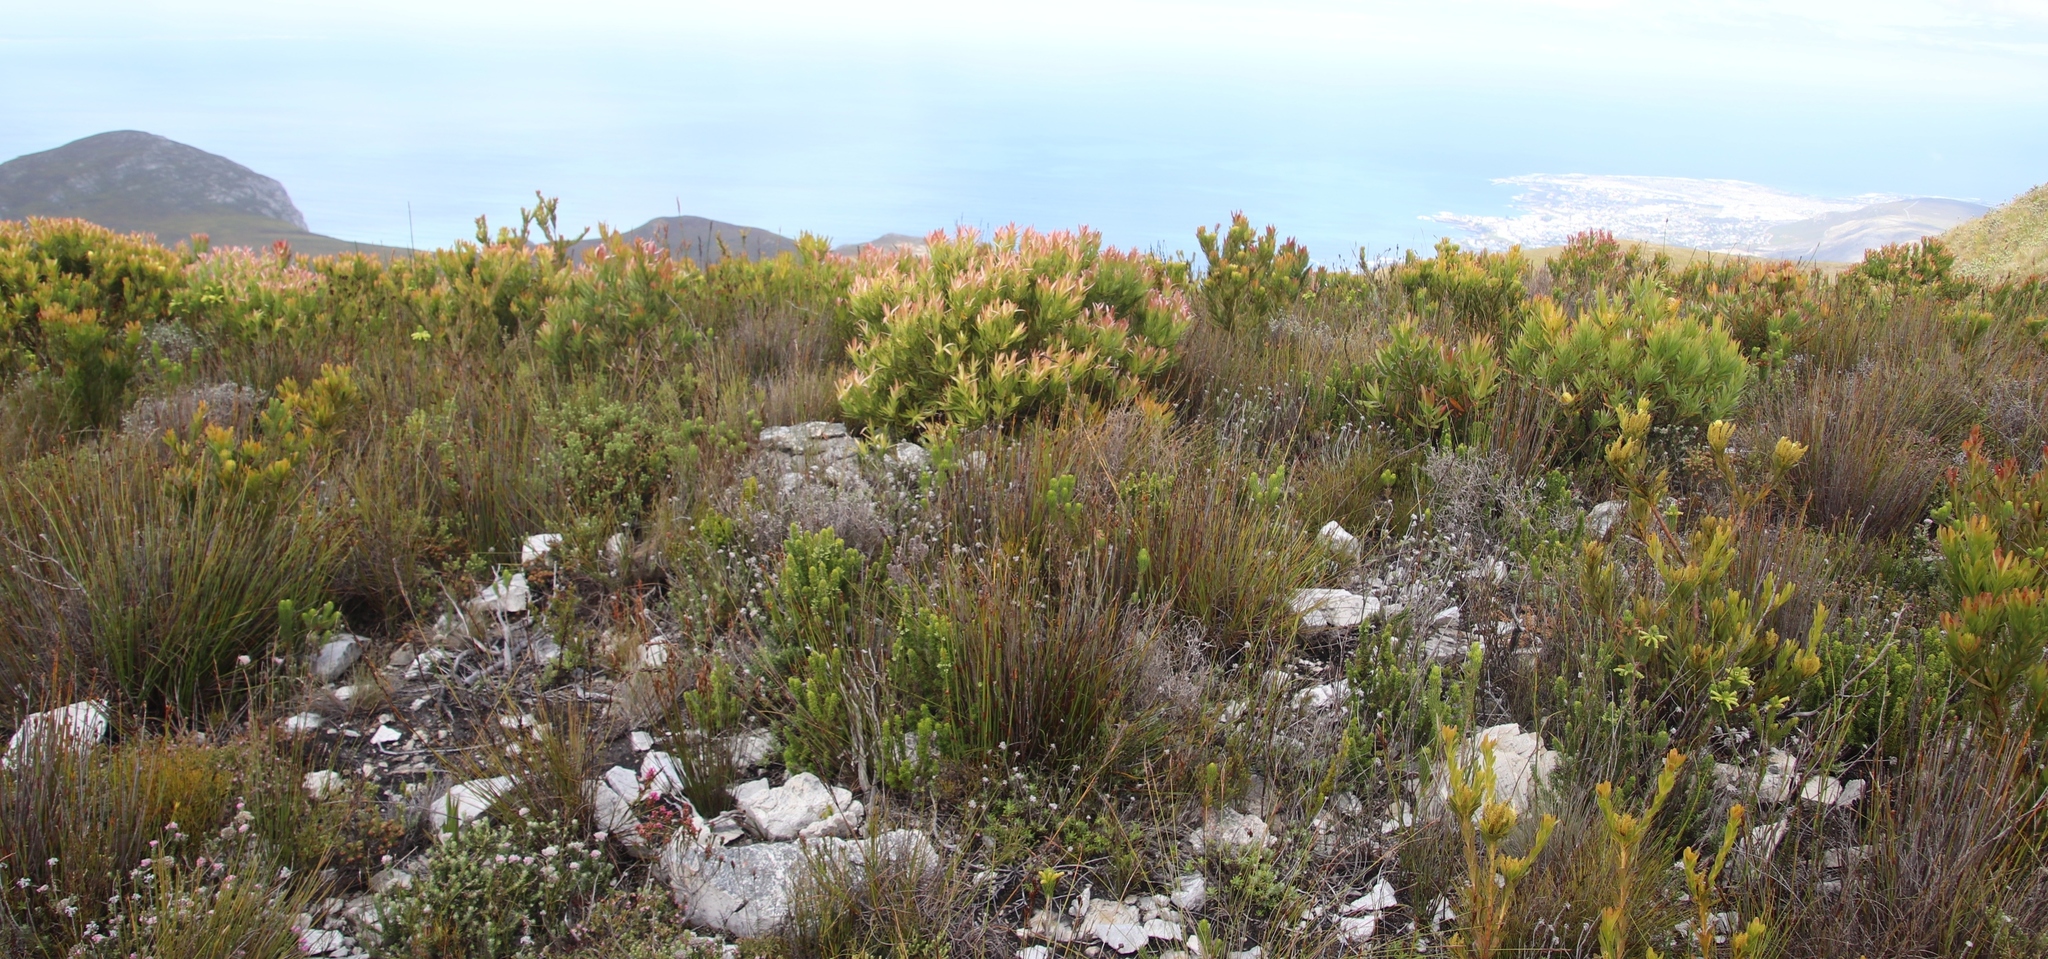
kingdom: Plantae
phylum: Tracheophyta
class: Magnoliopsida
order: Proteales
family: Proteaceae
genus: Leucadendron
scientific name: Leucadendron gandogeri
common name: Broad-leaf conebush
